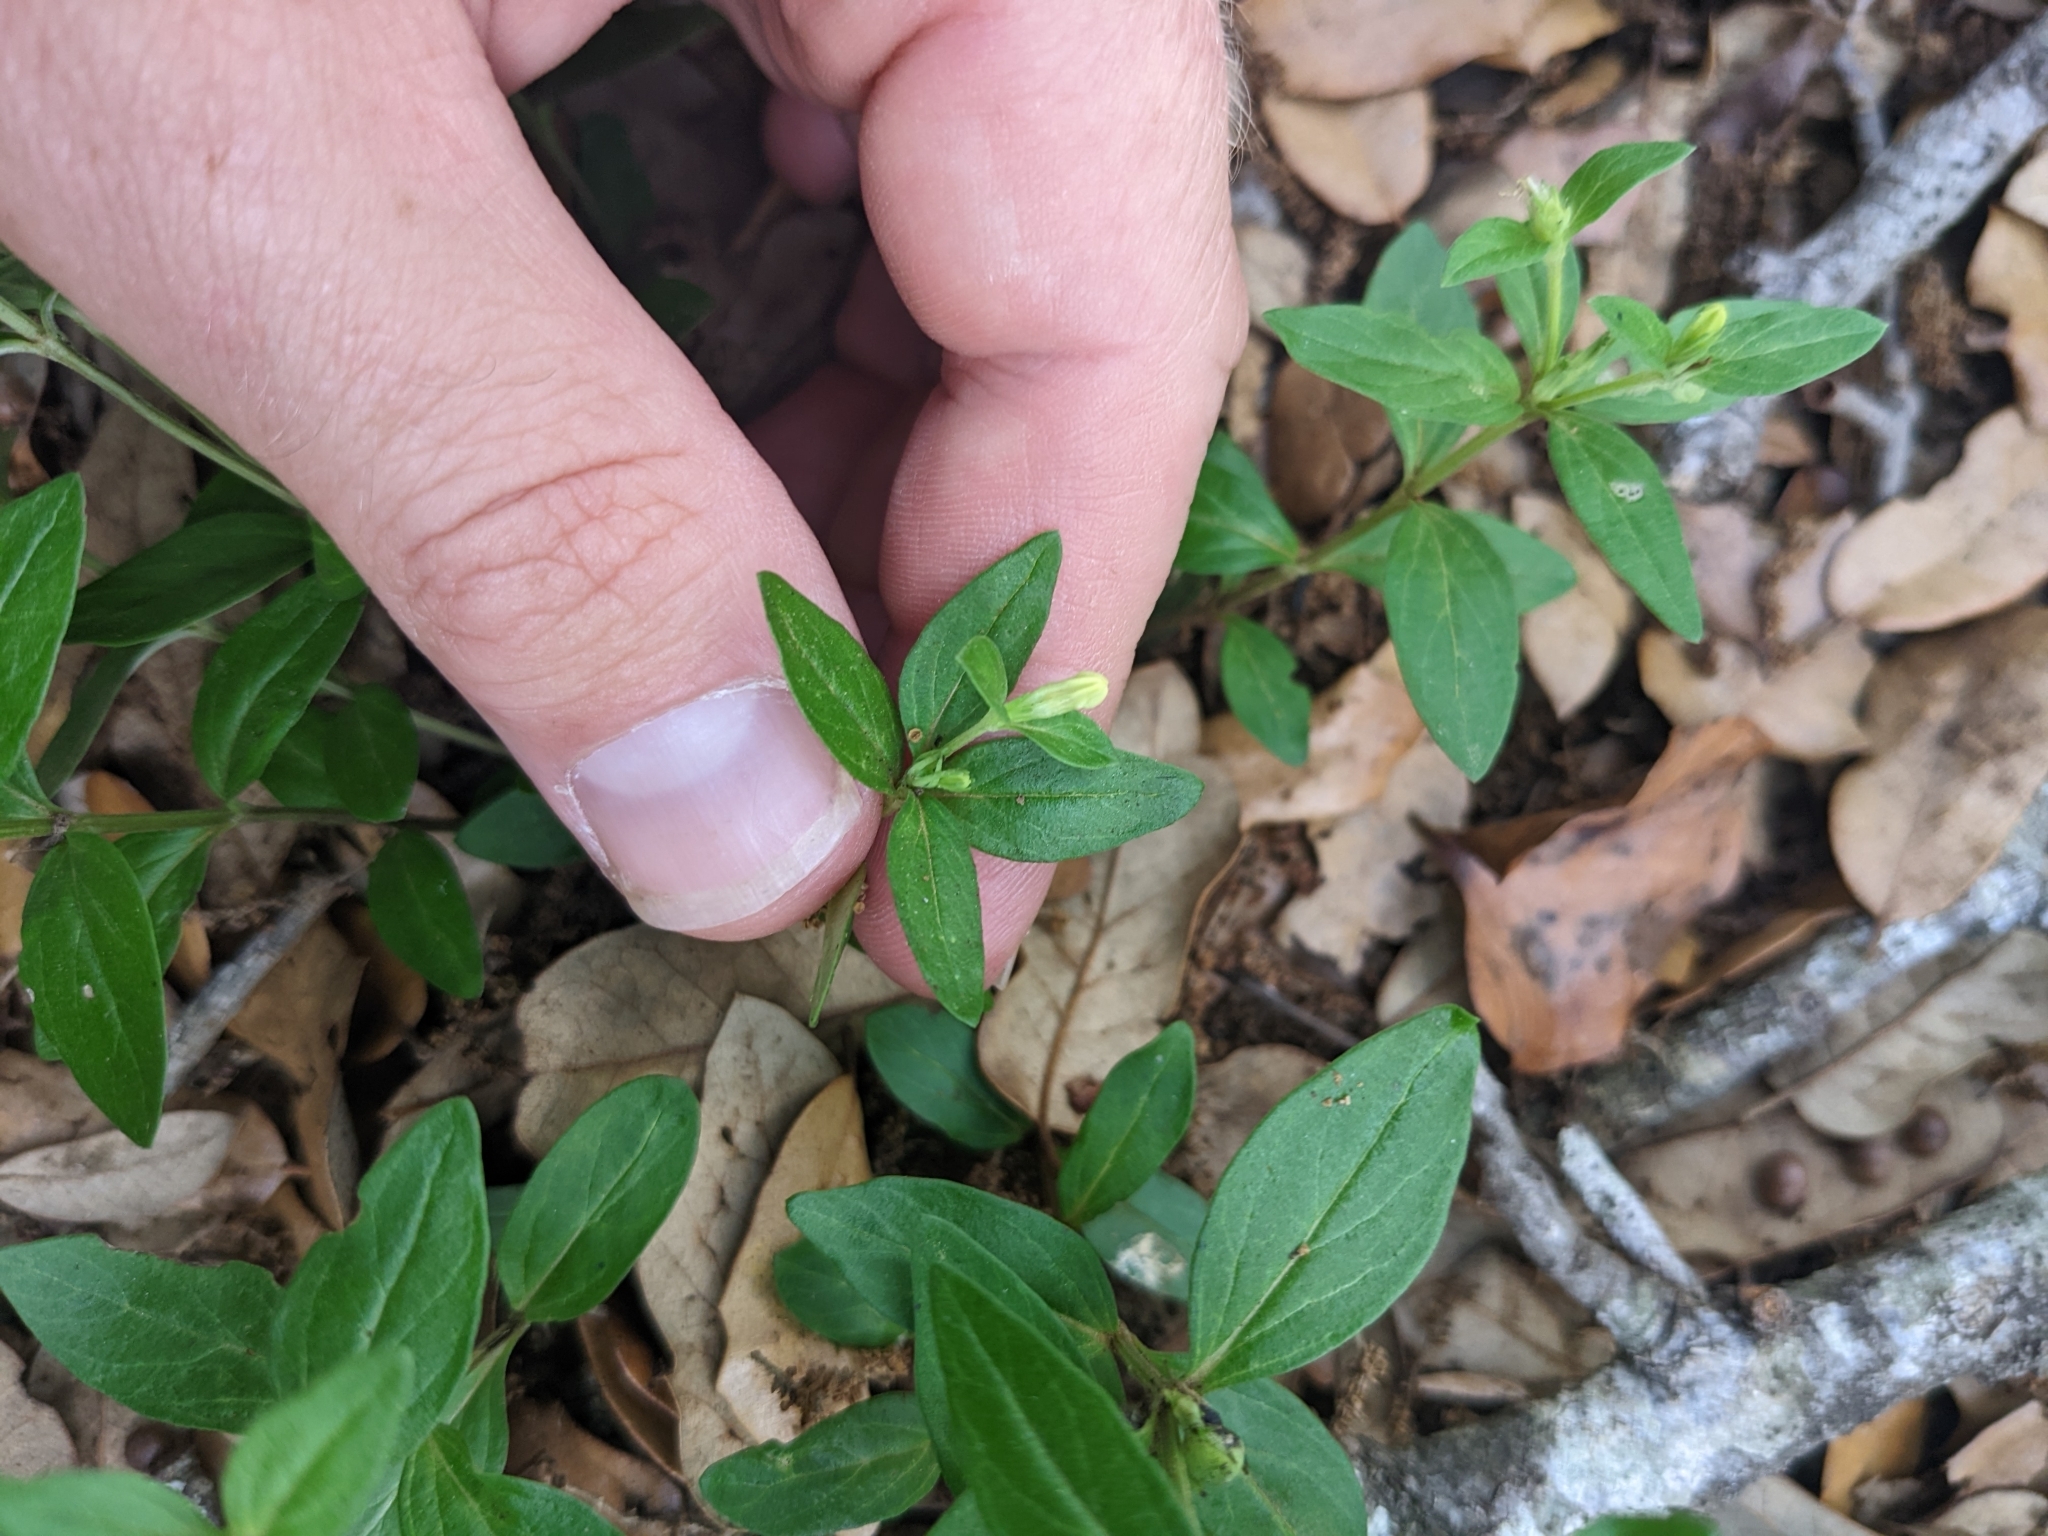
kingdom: Plantae
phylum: Tracheophyta
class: Magnoliopsida
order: Gentianales
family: Loganiaceae
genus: Spigelia
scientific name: Spigelia hedyotidea
